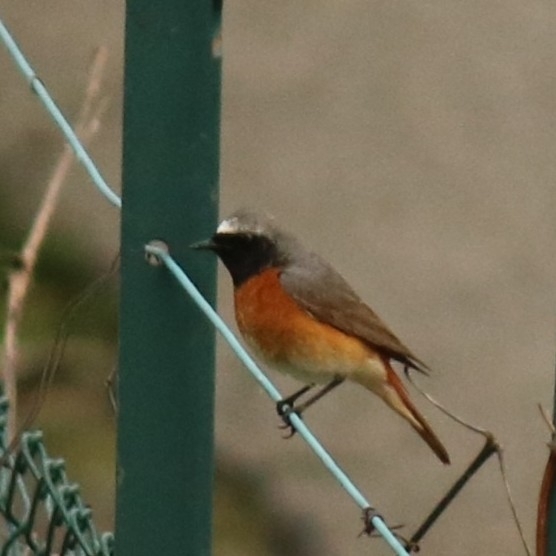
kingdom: Animalia
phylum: Chordata
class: Aves
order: Passeriformes
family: Muscicapidae
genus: Phoenicurus
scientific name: Phoenicurus phoenicurus
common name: Common redstart
